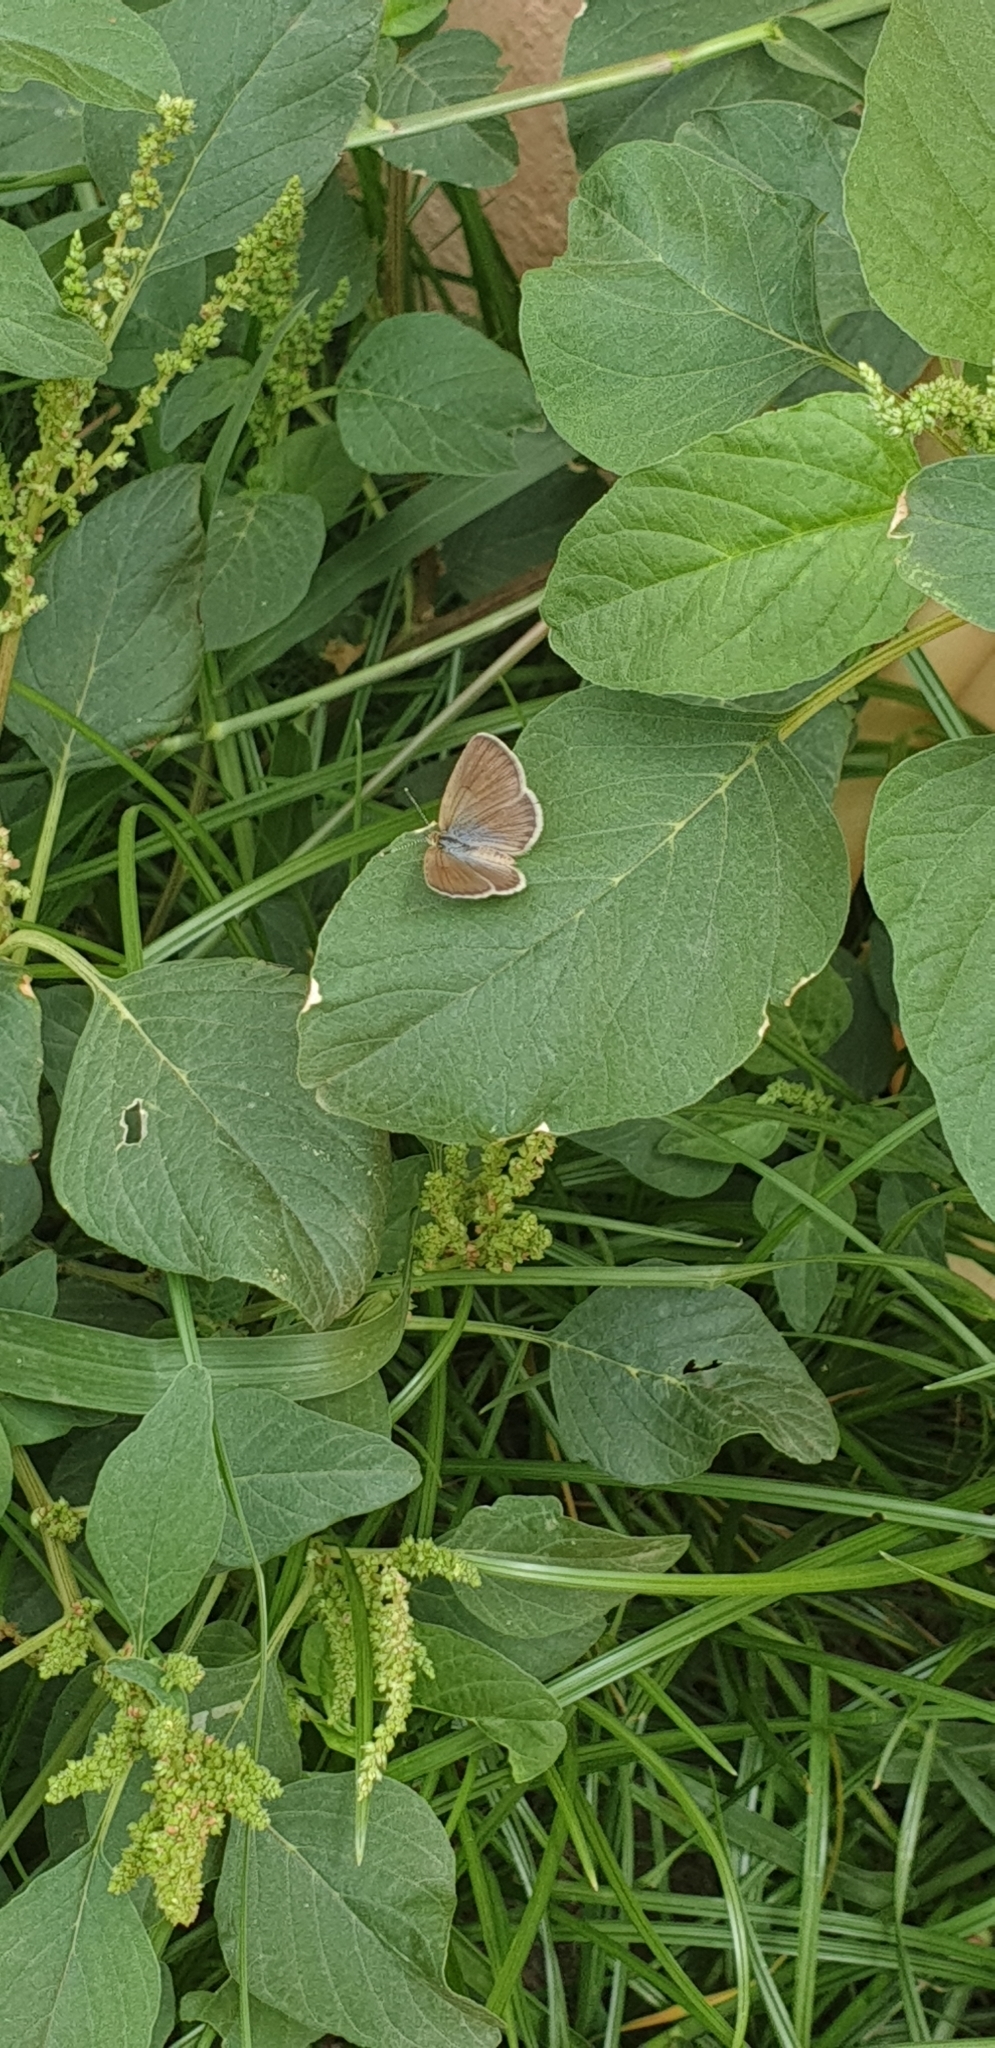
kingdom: Animalia
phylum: Arthropoda
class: Insecta
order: Lepidoptera
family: Lycaenidae
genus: Zizeeria
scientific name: Zizeeria karsandra
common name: Dark grass blue
